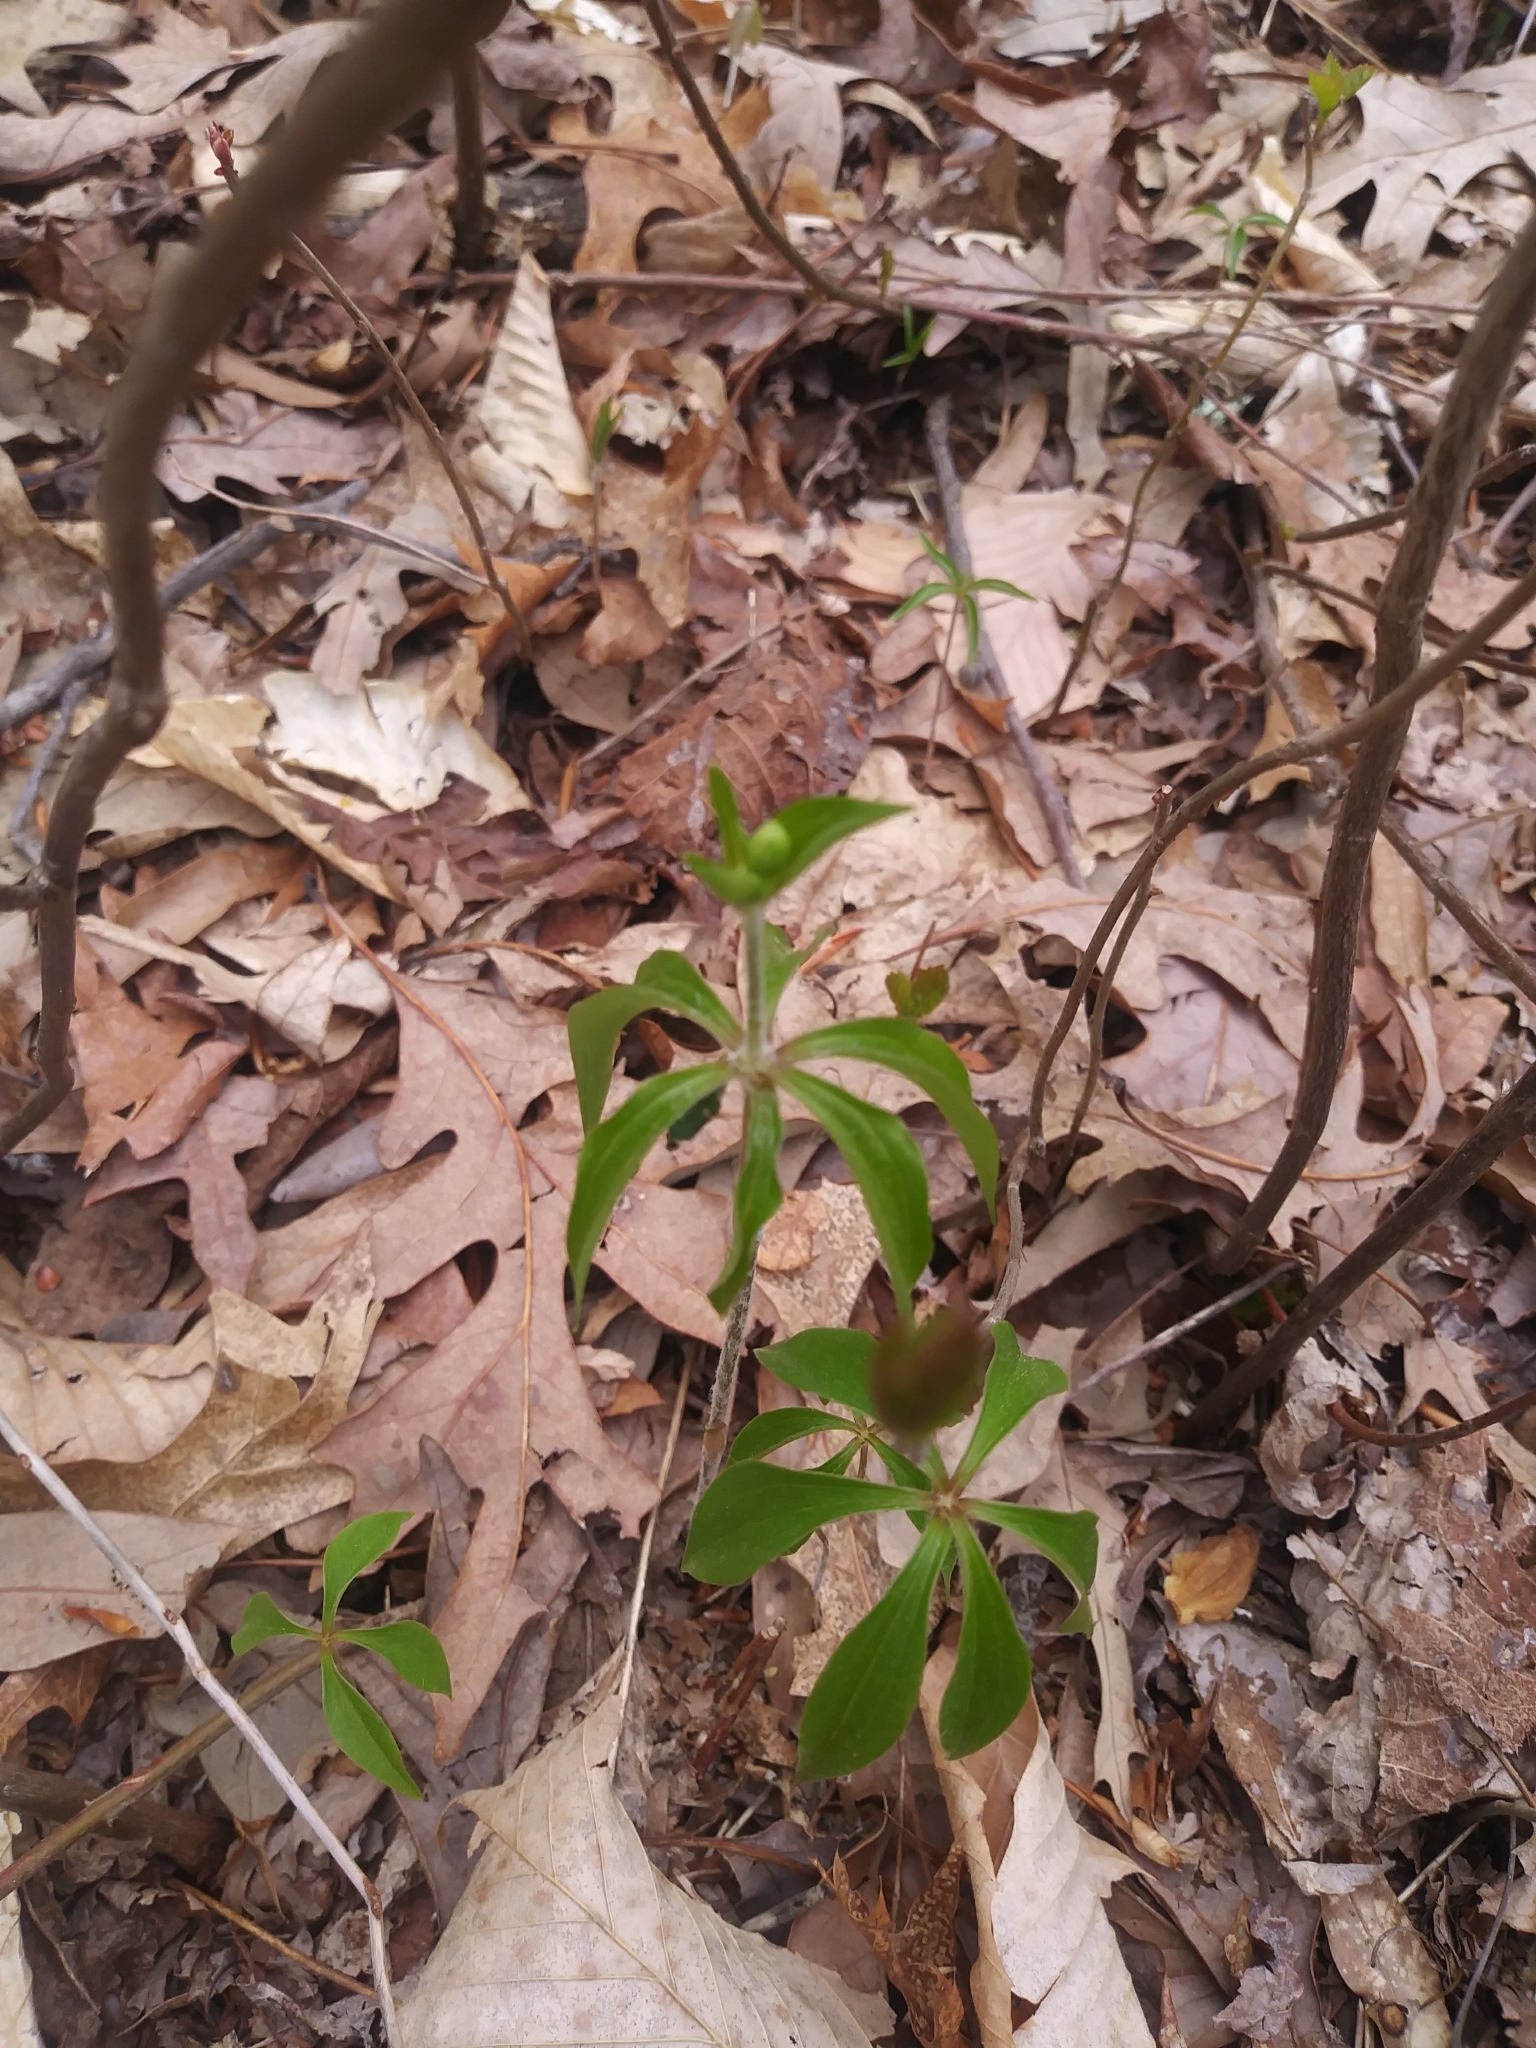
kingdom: Plantae
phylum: Tracheophyta
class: Liliopsida
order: Liliales
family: Liliaceae
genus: Medeola
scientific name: Medeola virginiana
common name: Indian cucumber-root
